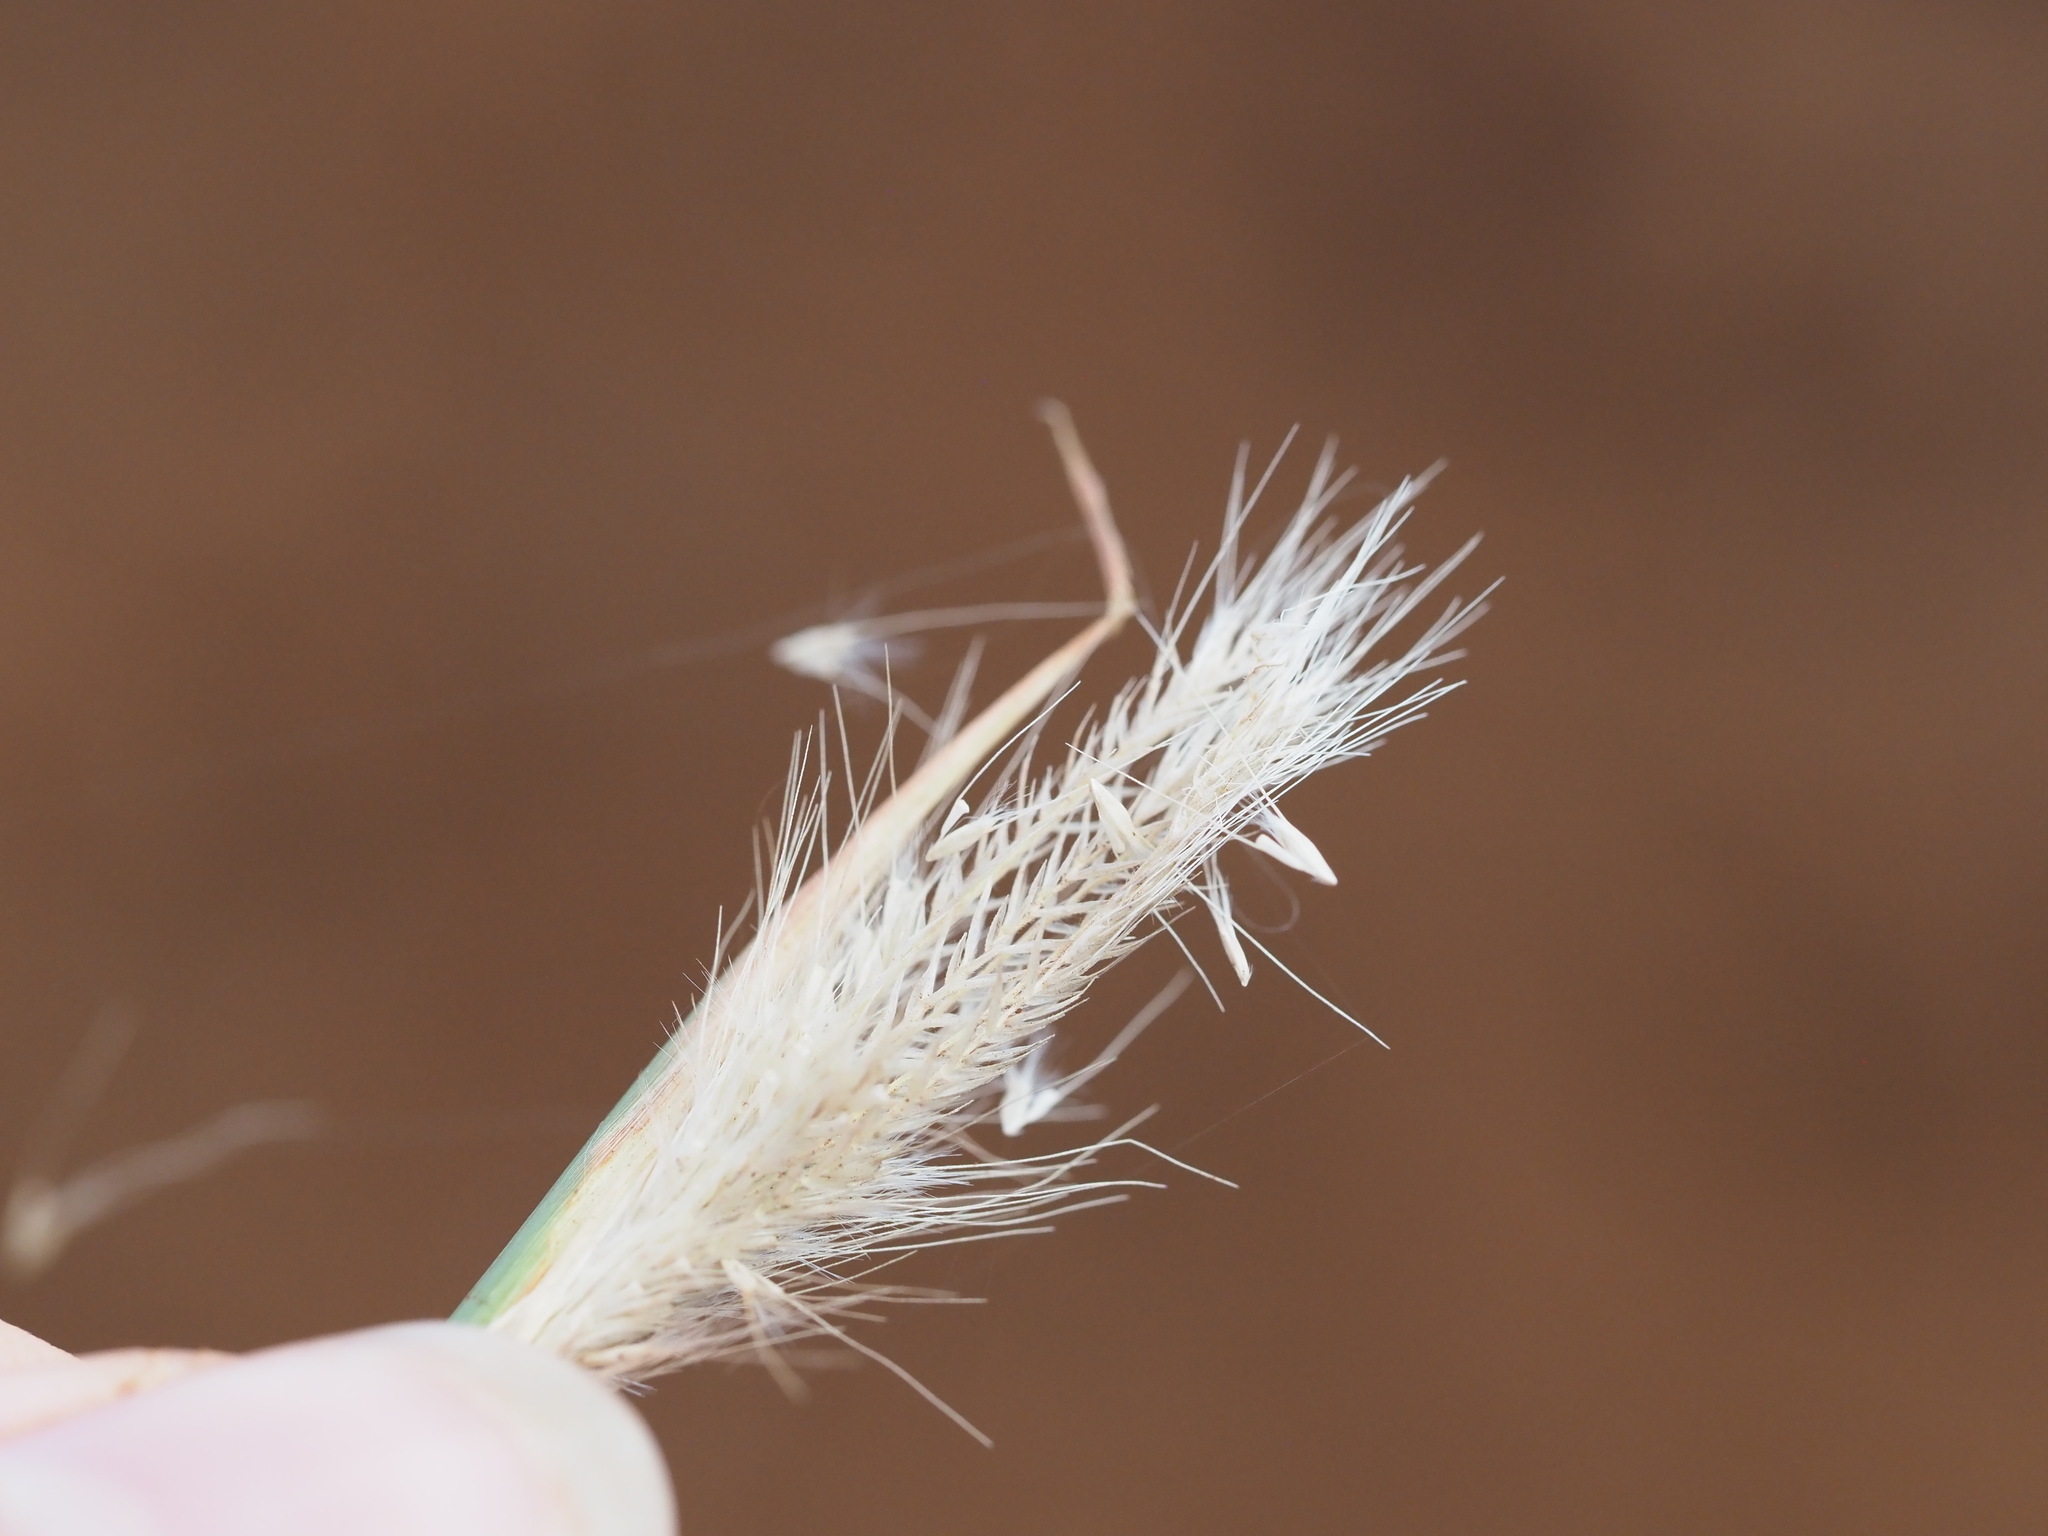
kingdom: Plantae
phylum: Tracheophyta
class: Liliopsida
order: Poales
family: Poaceae
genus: Chloris
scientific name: Chloris virgata
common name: Feathery rhodes-grass
